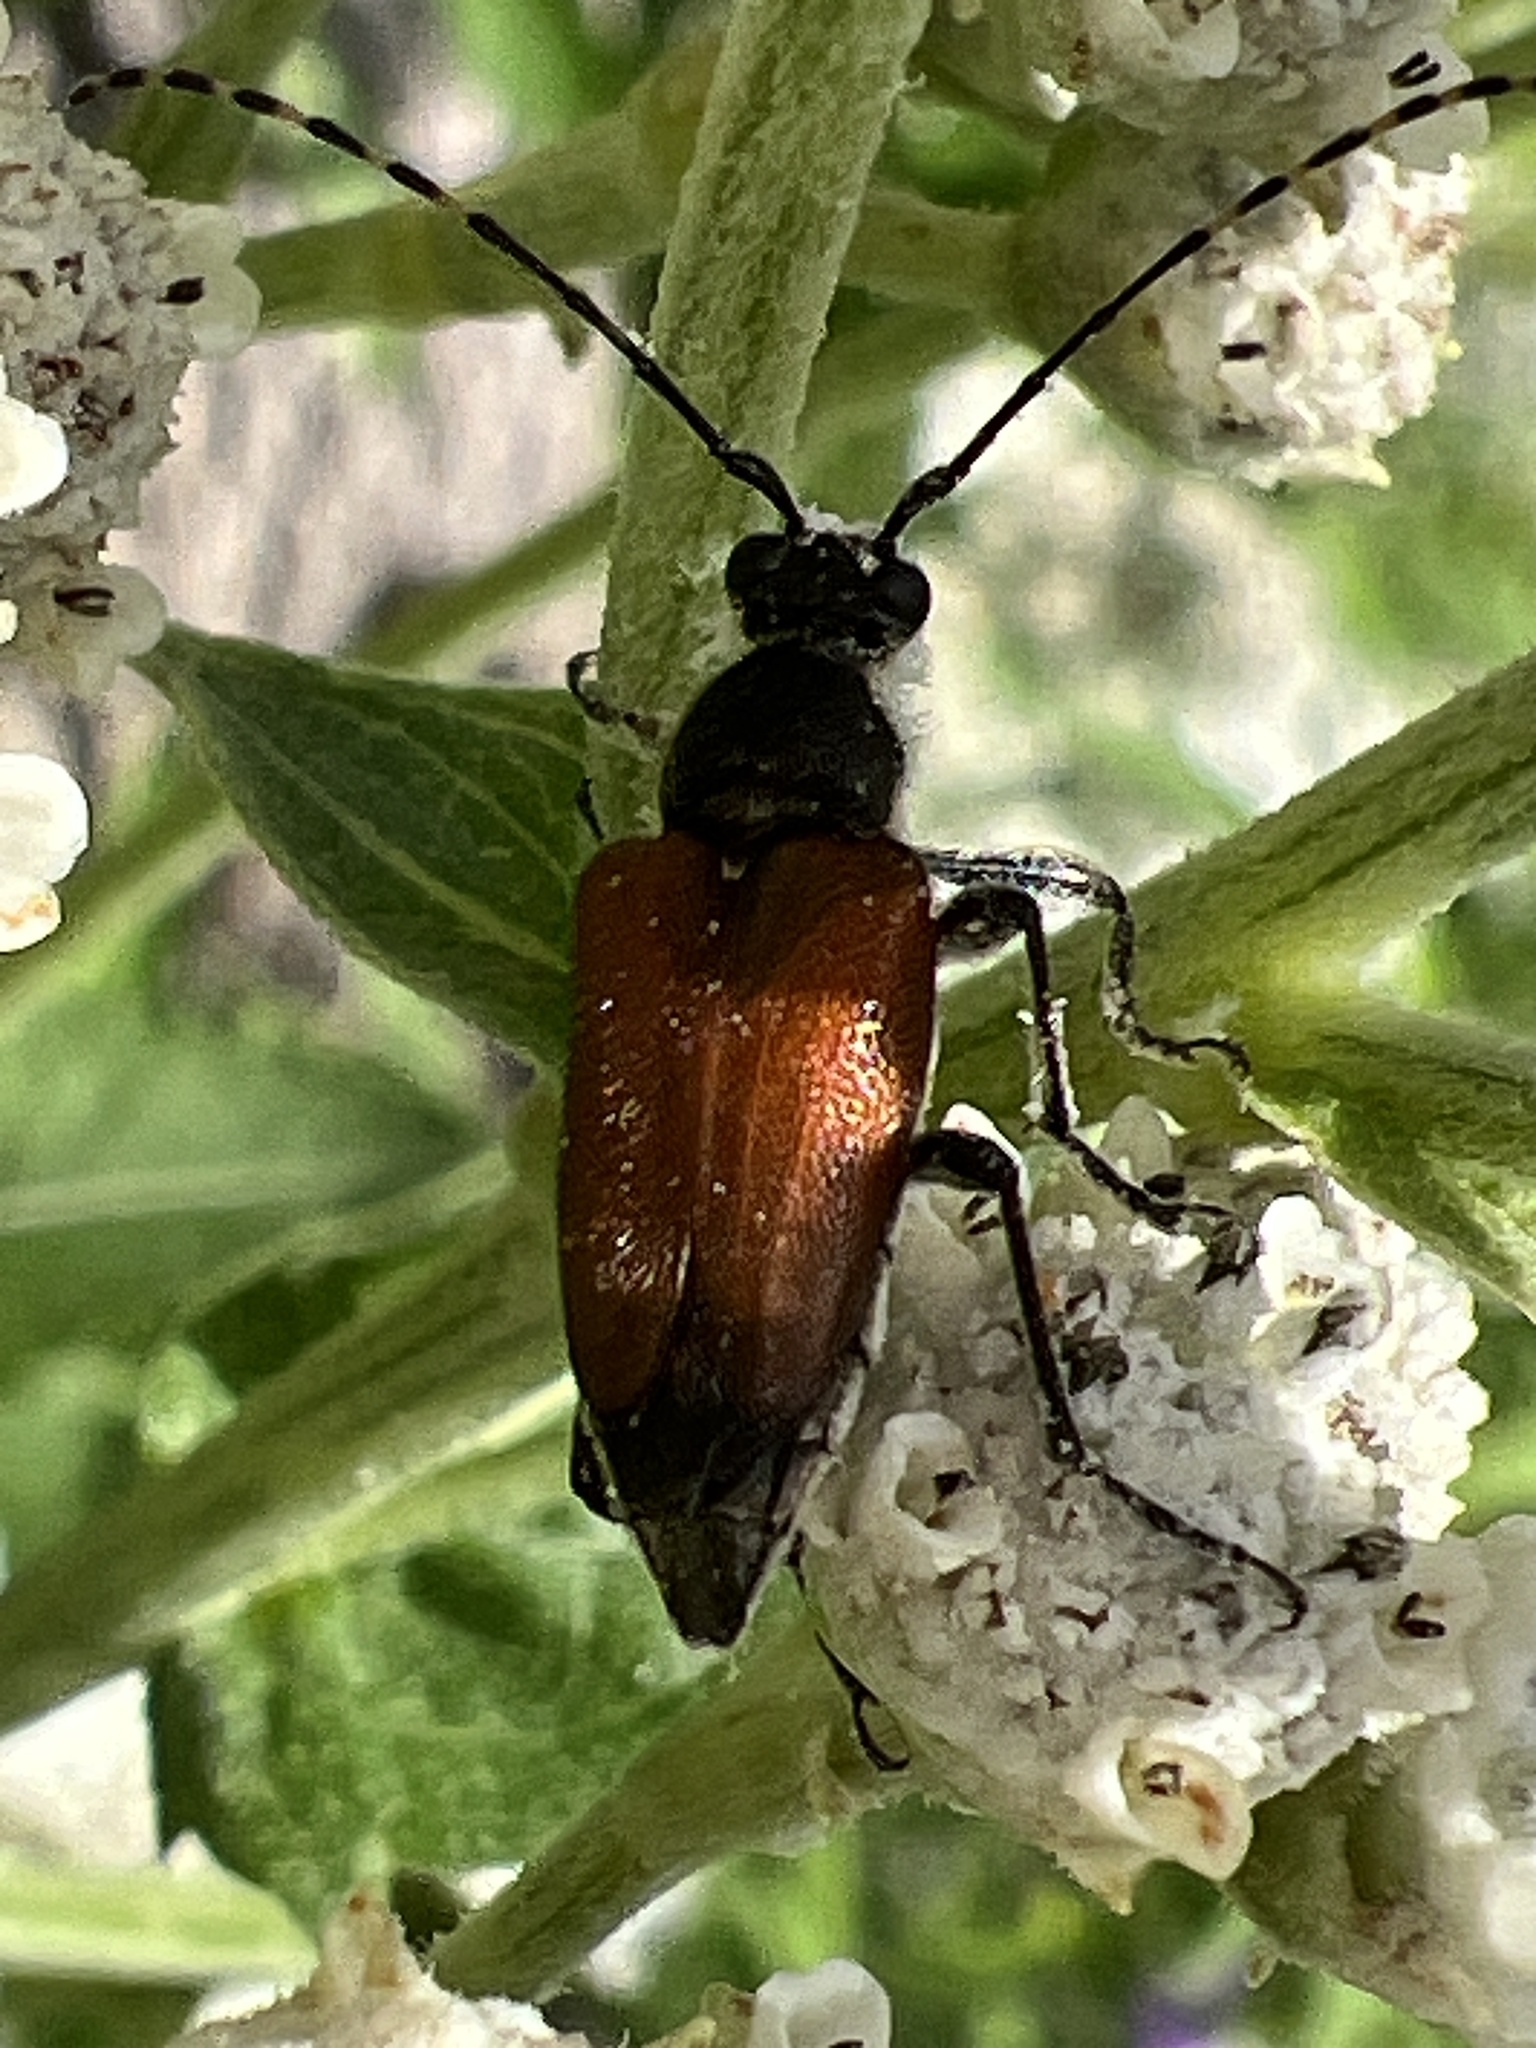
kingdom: Animalia
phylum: Arthropoda
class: Insecta
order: Coleoptera
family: Cerambycidae
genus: Brachyleptura
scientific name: Brachyleptura rubrica
